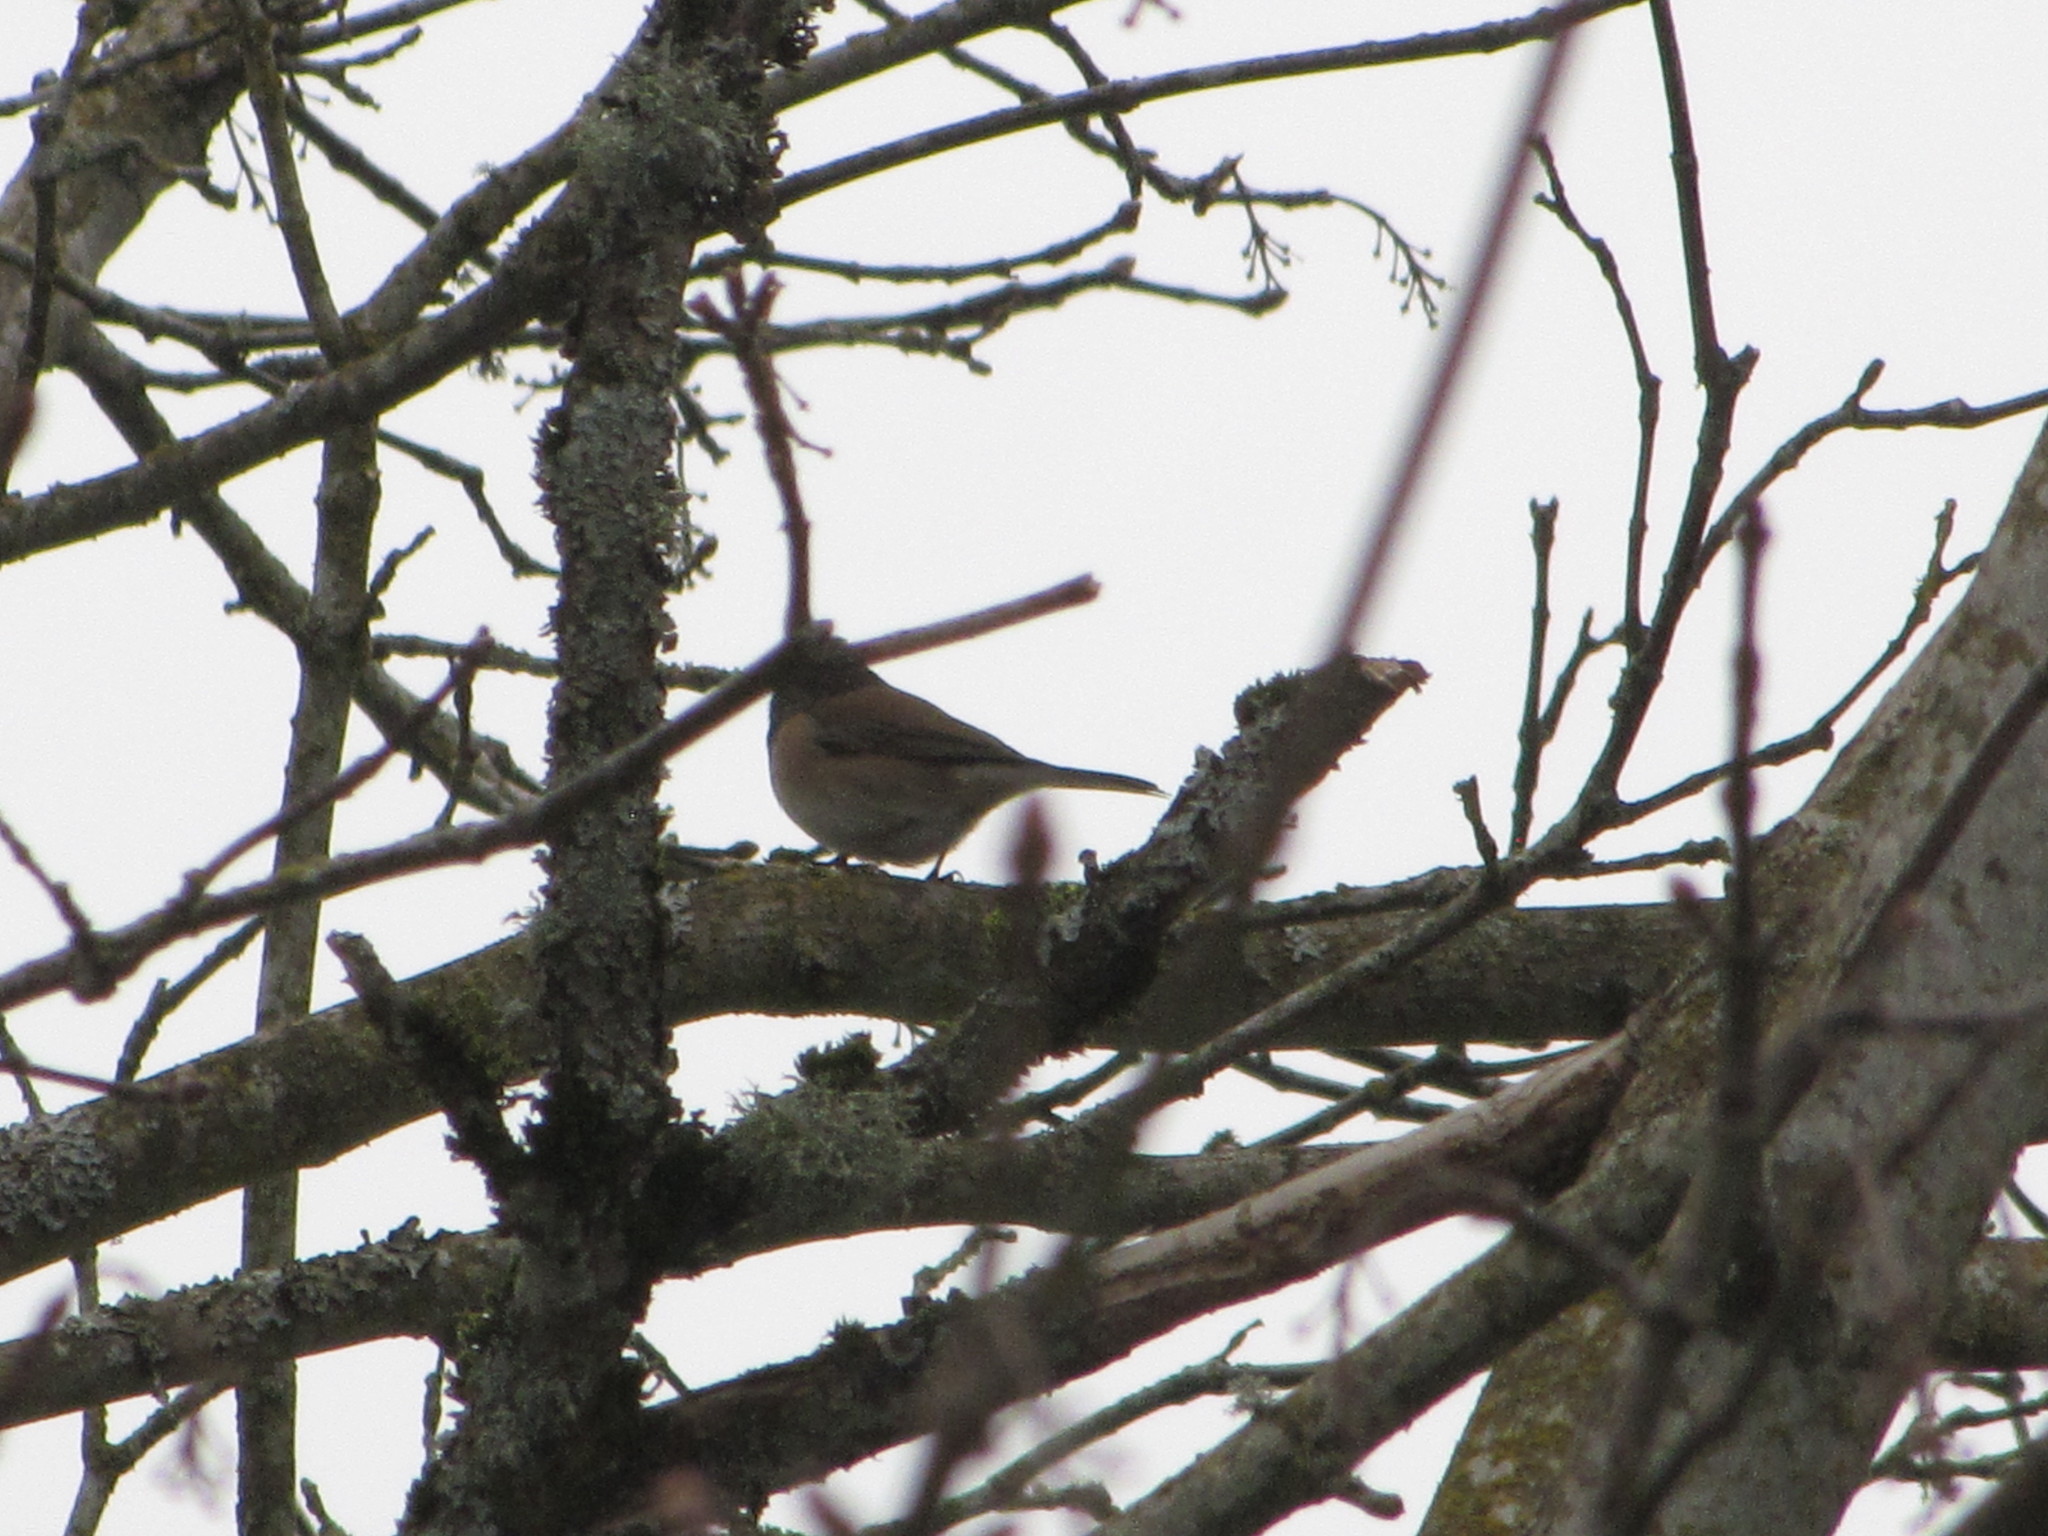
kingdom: Animalia
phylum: Chordata
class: Aves
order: Passeriformes
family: Passerellidae
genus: Junco
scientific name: Junco hyemalis
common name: Dark-eyed junco
